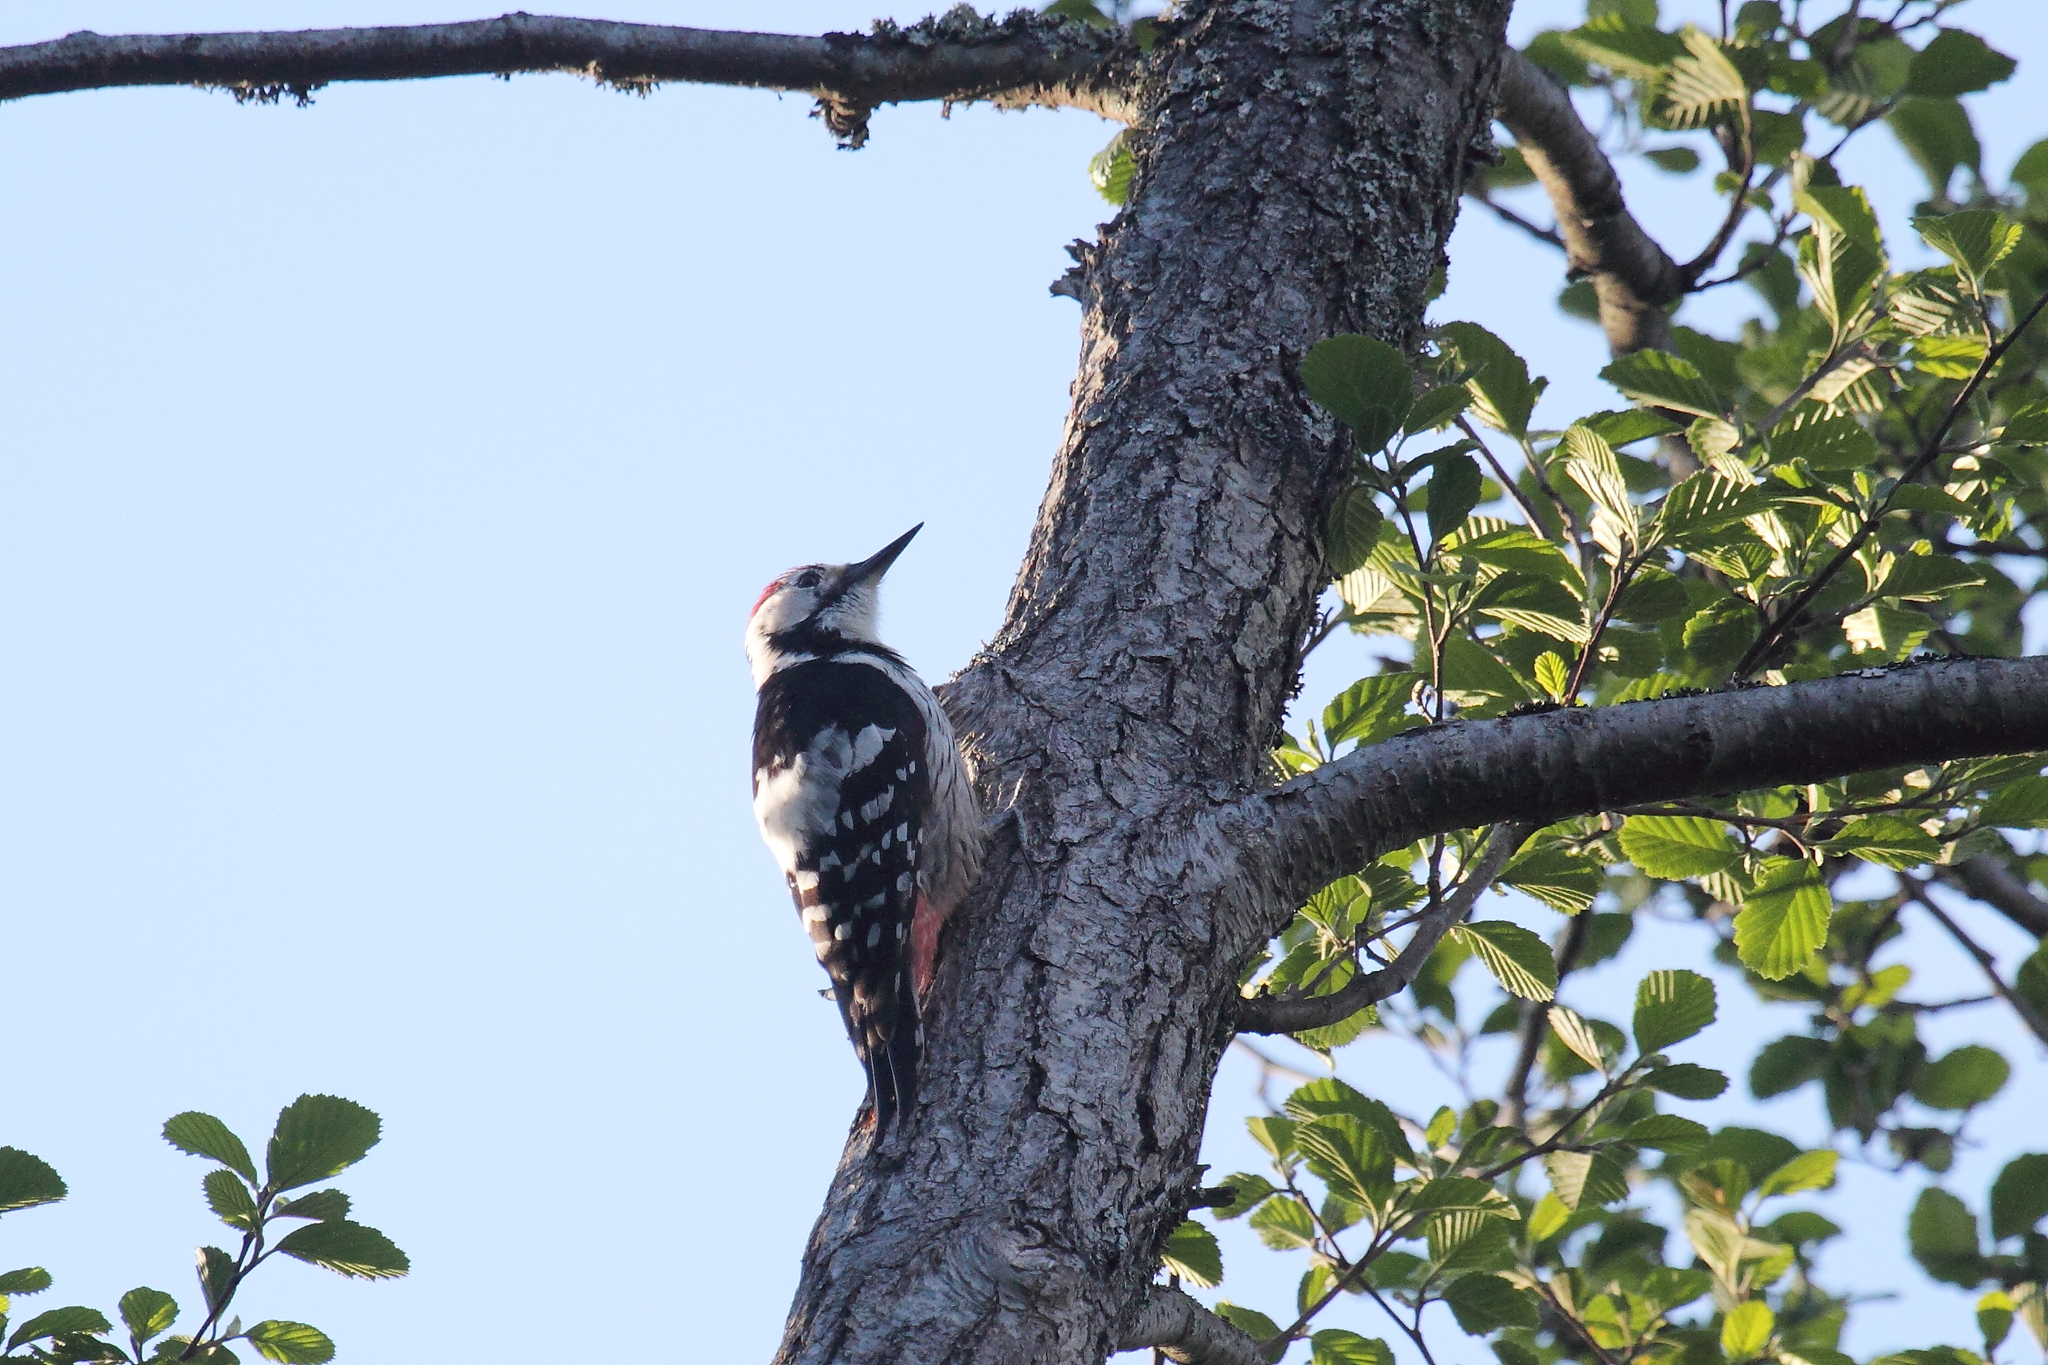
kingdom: Animalia
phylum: Chordata
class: Aves
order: Piciformes
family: Picidae
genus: Dendrocopos
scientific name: Dendrocopos leucotos
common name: White-backed woodpecker
